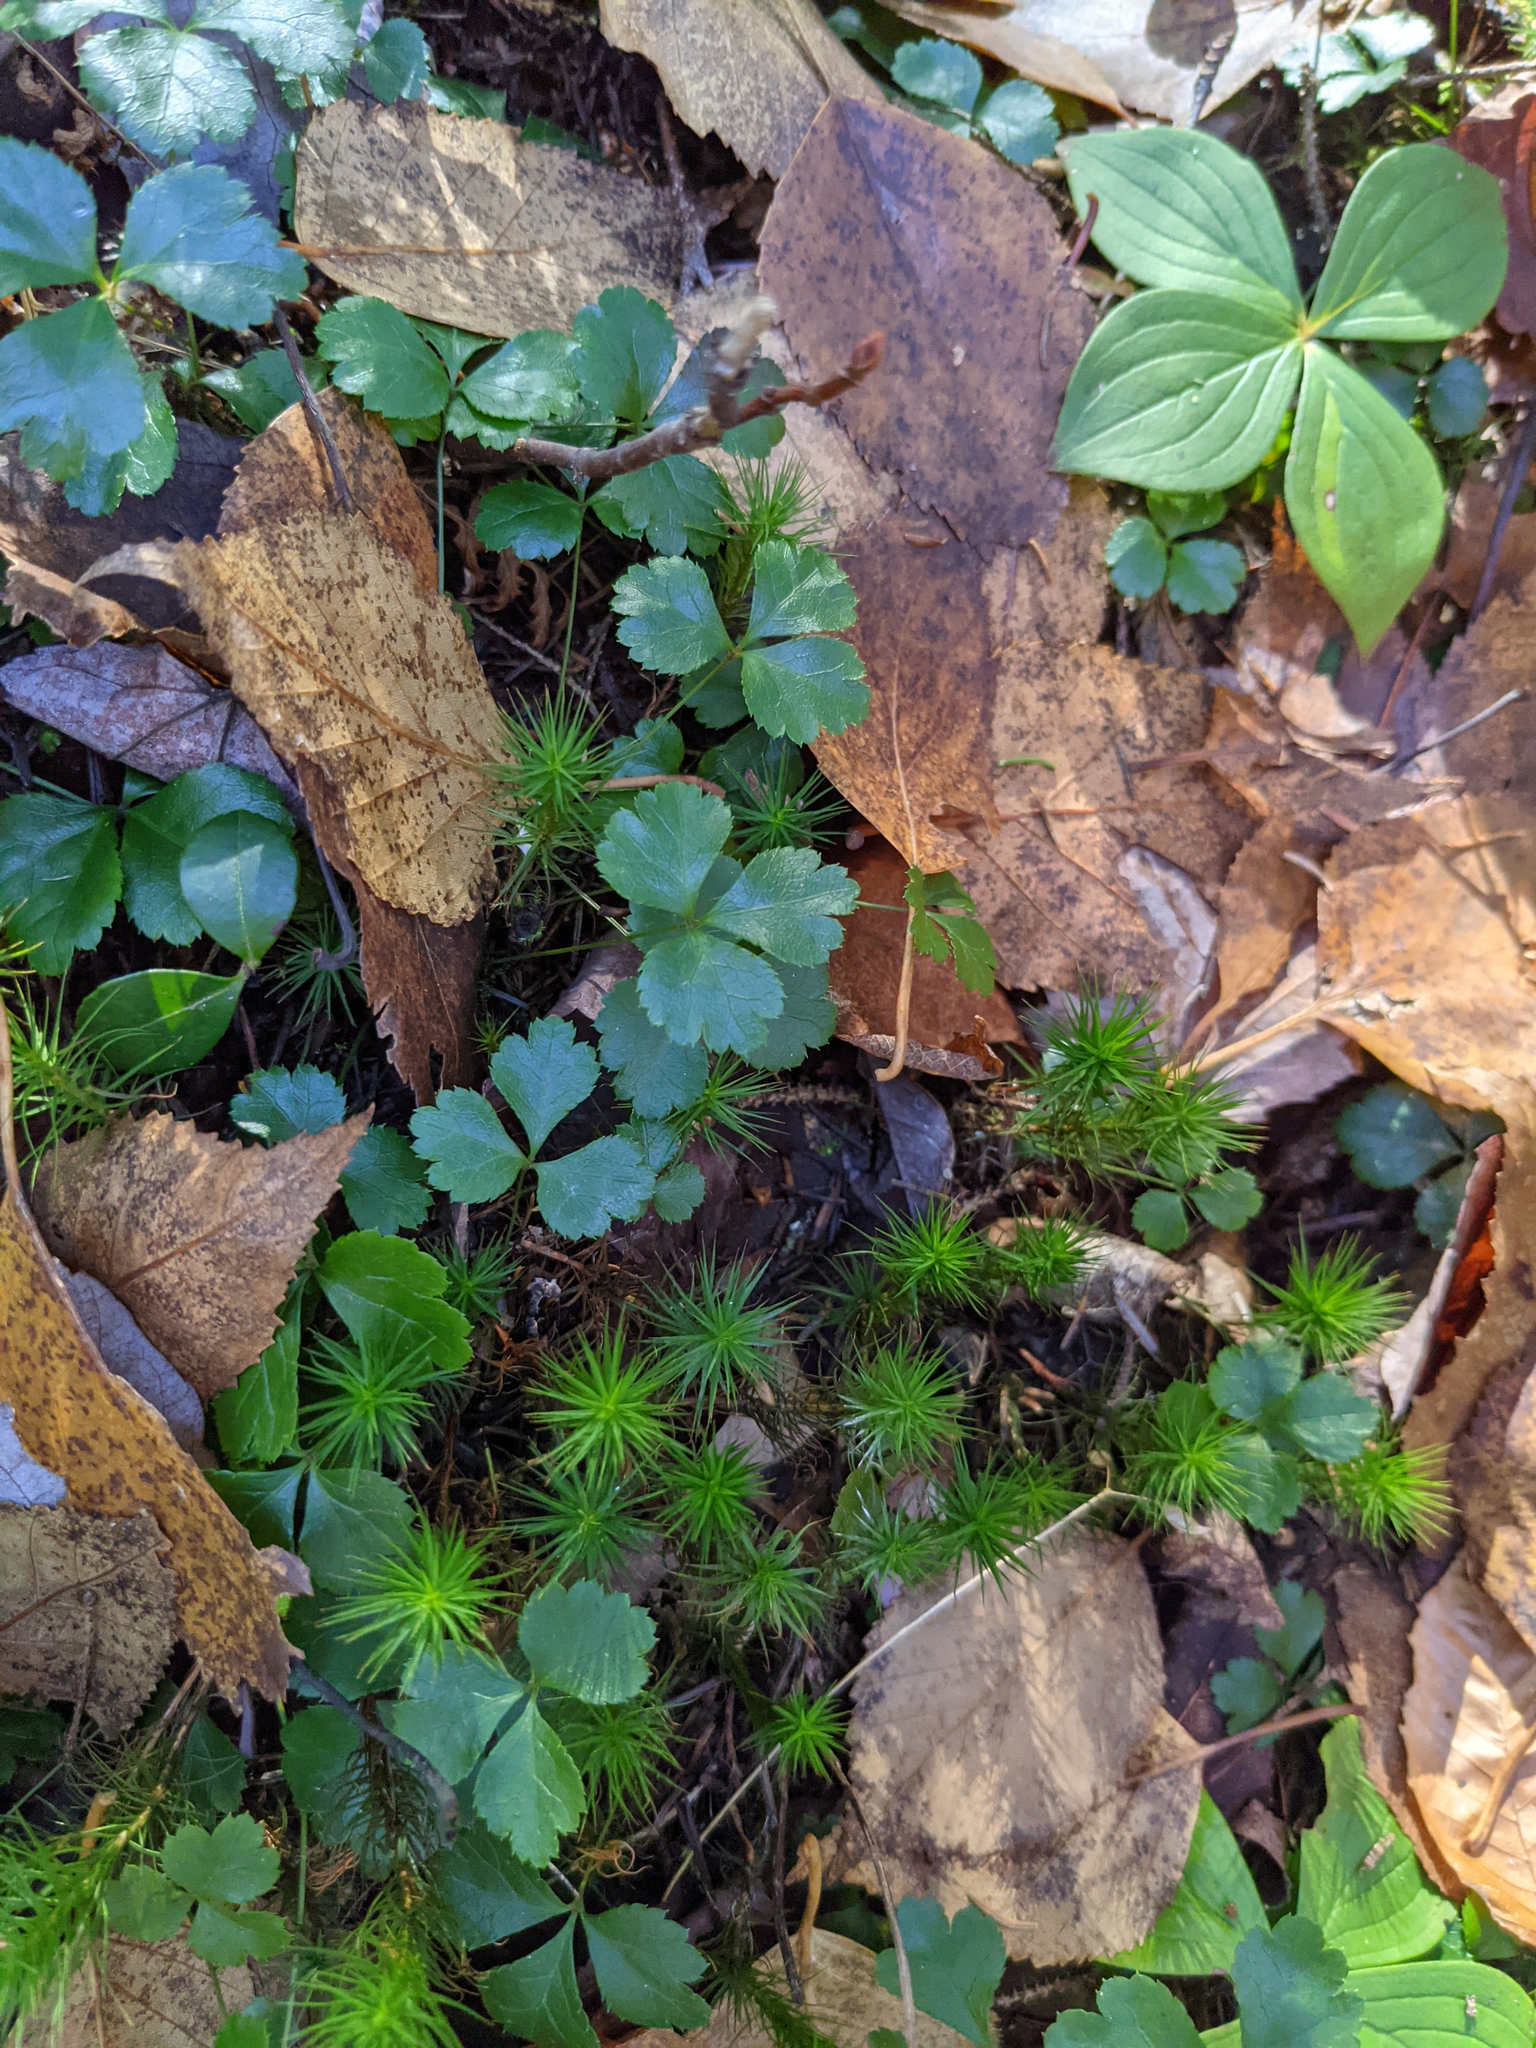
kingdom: Plantae
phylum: Tracheophyta
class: Magnoliopsida
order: Ranunculales
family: Ranunculaceae
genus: Coptis
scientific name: Coptis trifolia
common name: Canker-root
